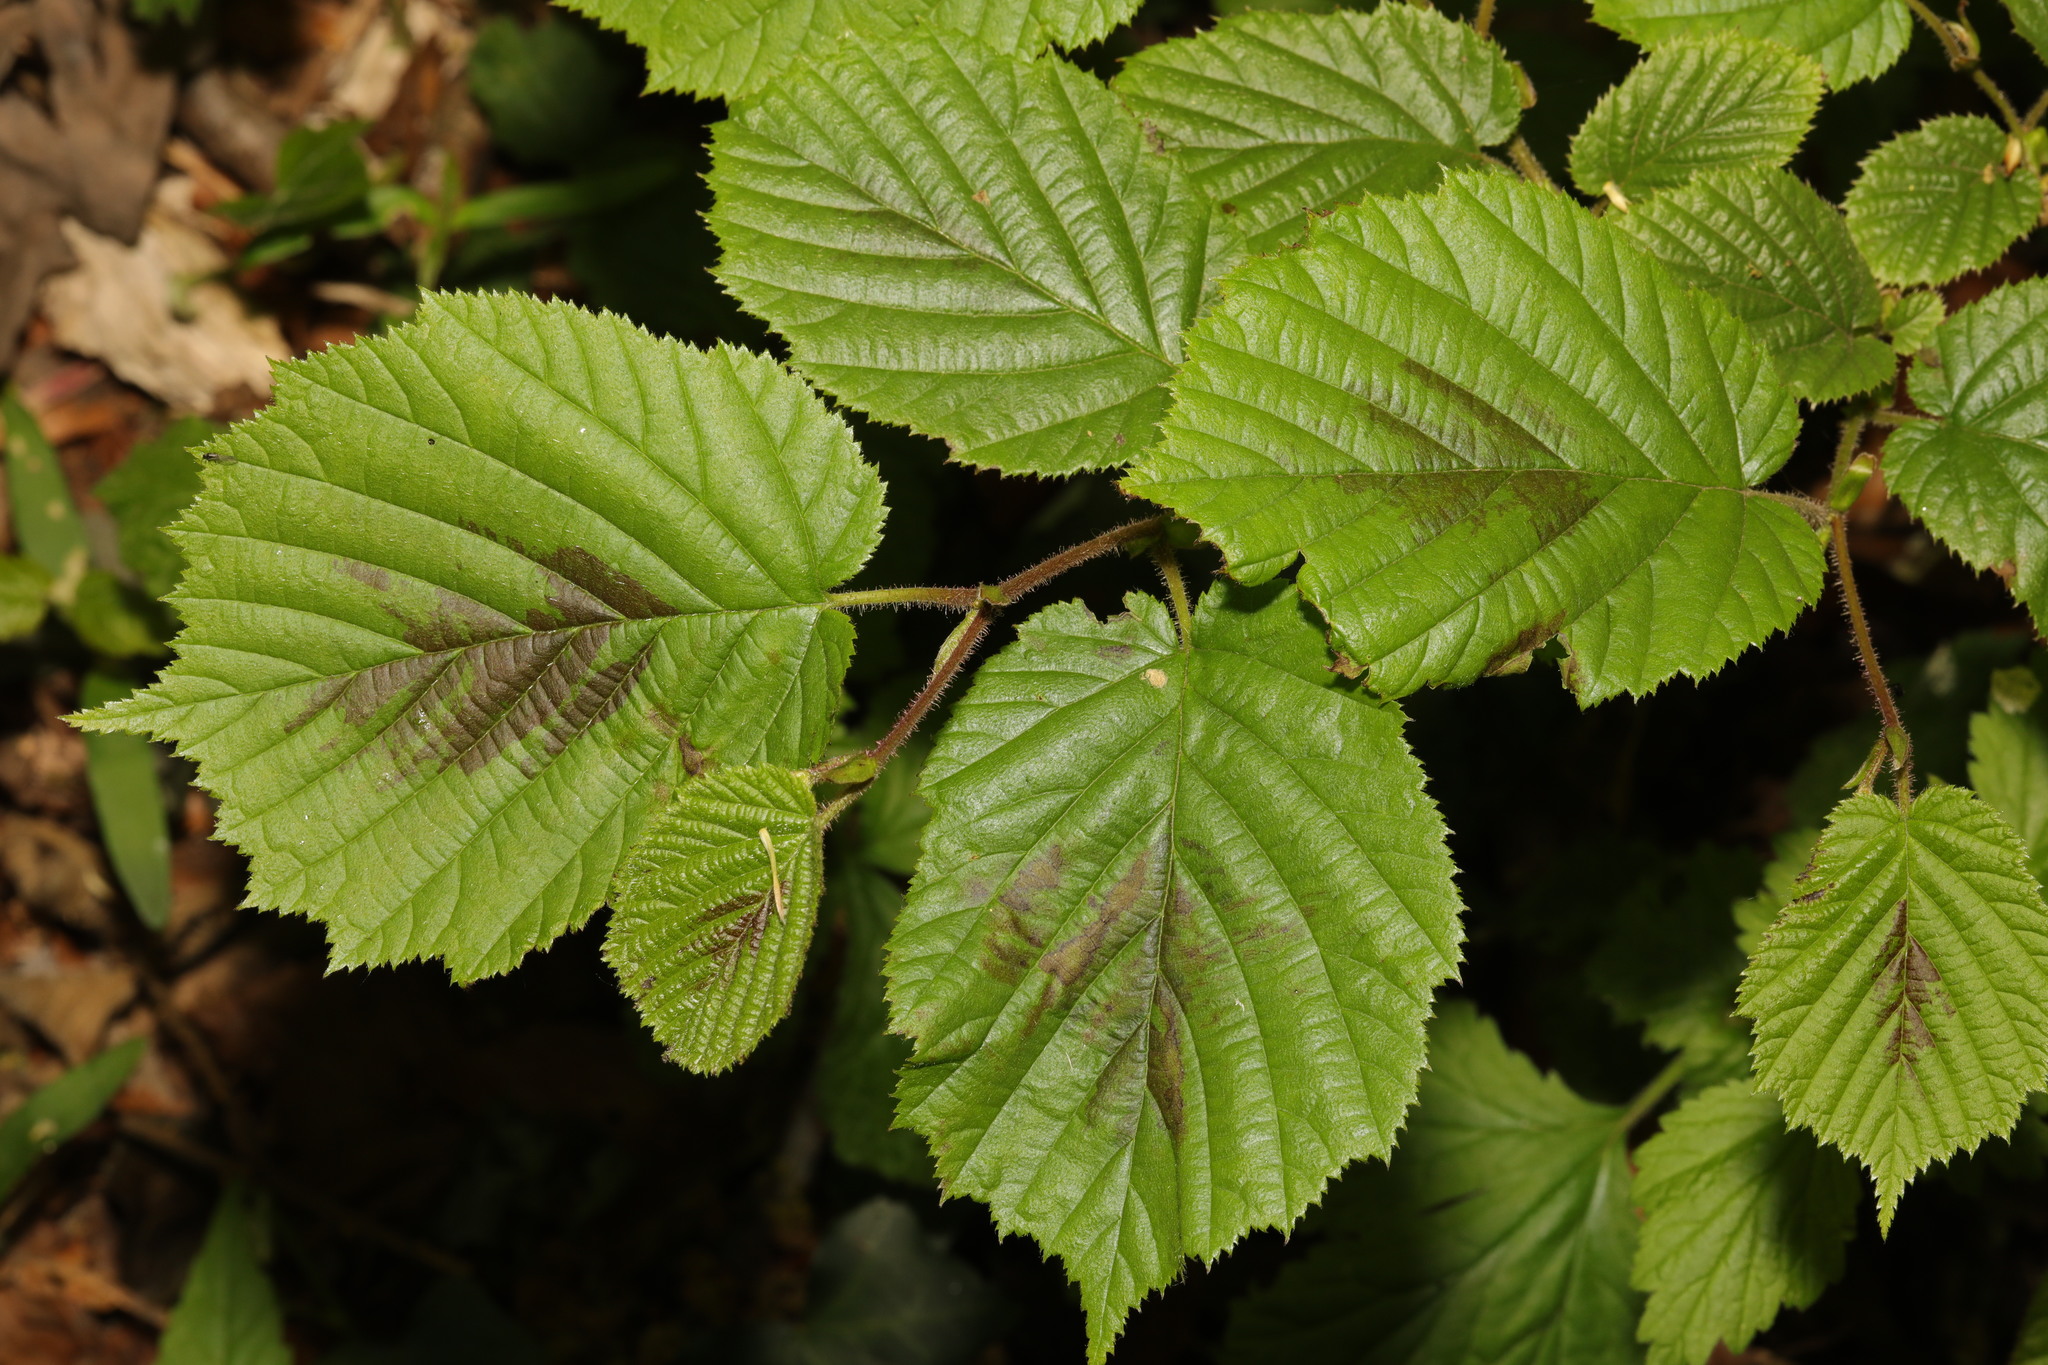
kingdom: Plantae
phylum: Tracheophyta
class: Magnoliopsida
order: Fagales
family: Betulaceae
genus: Corylus
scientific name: Corylus avellana
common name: European hazel
